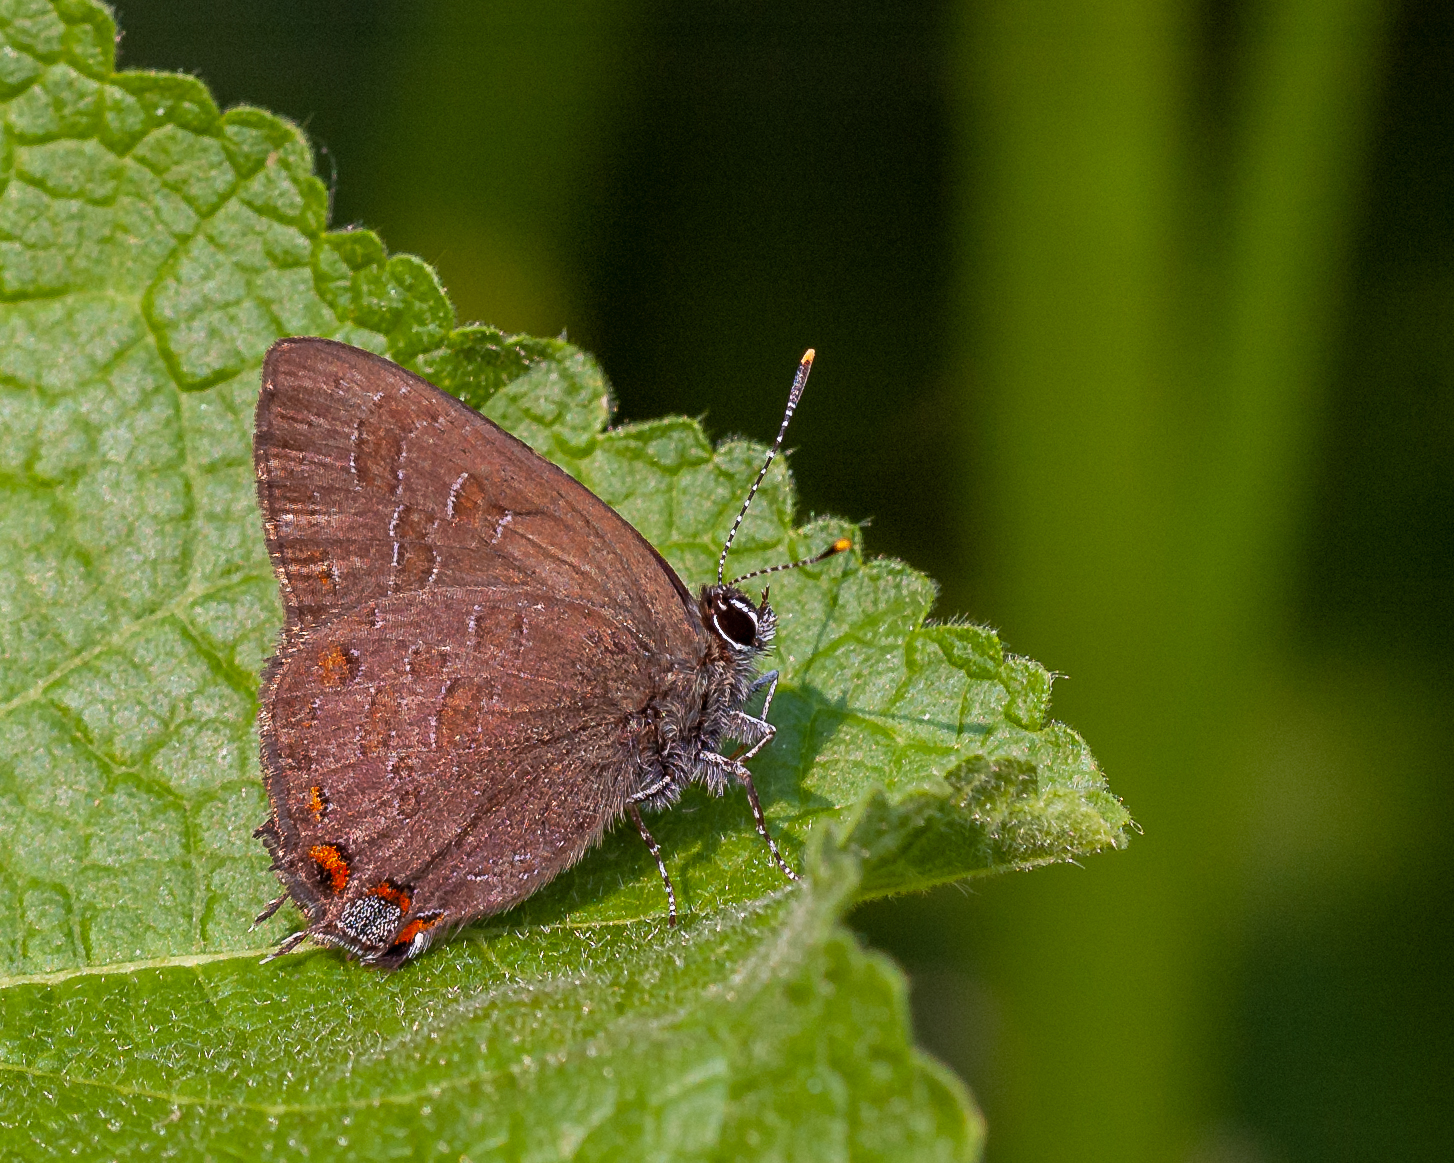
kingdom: Animalia
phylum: Arthropoda
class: Insecta
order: Lepidoptera
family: Lycaenidae
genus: Satyrium
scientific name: Satyrium liparops
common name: Striped hairstreak
